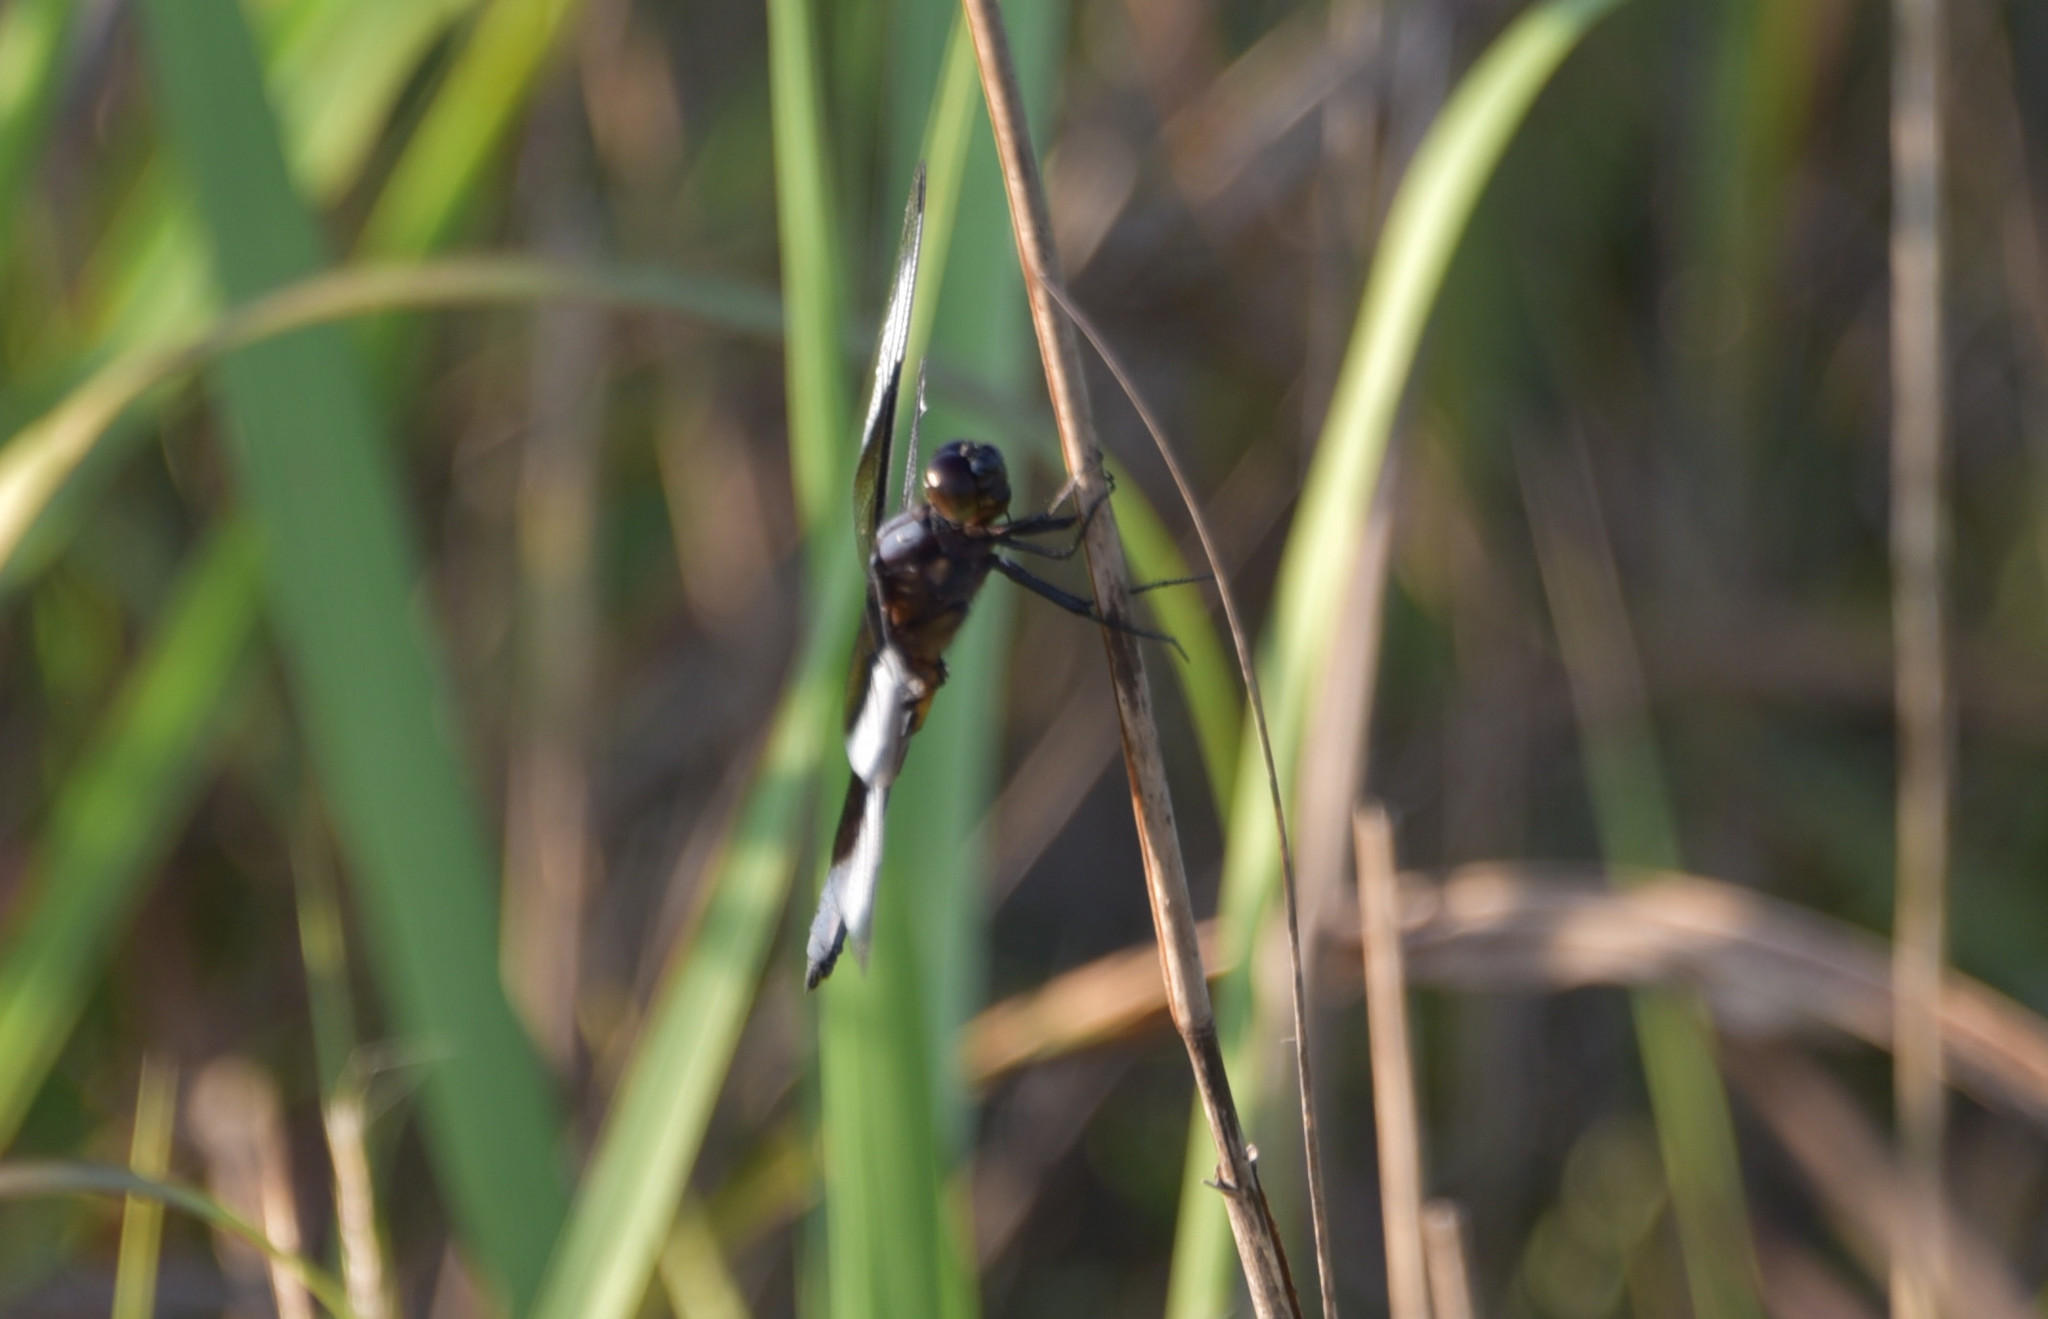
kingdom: Animalia
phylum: Arthropoda
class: Insecta
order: Odonata
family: Libellulidae
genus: Libellula
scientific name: Libellula luctuosa
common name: Widow skimmer
